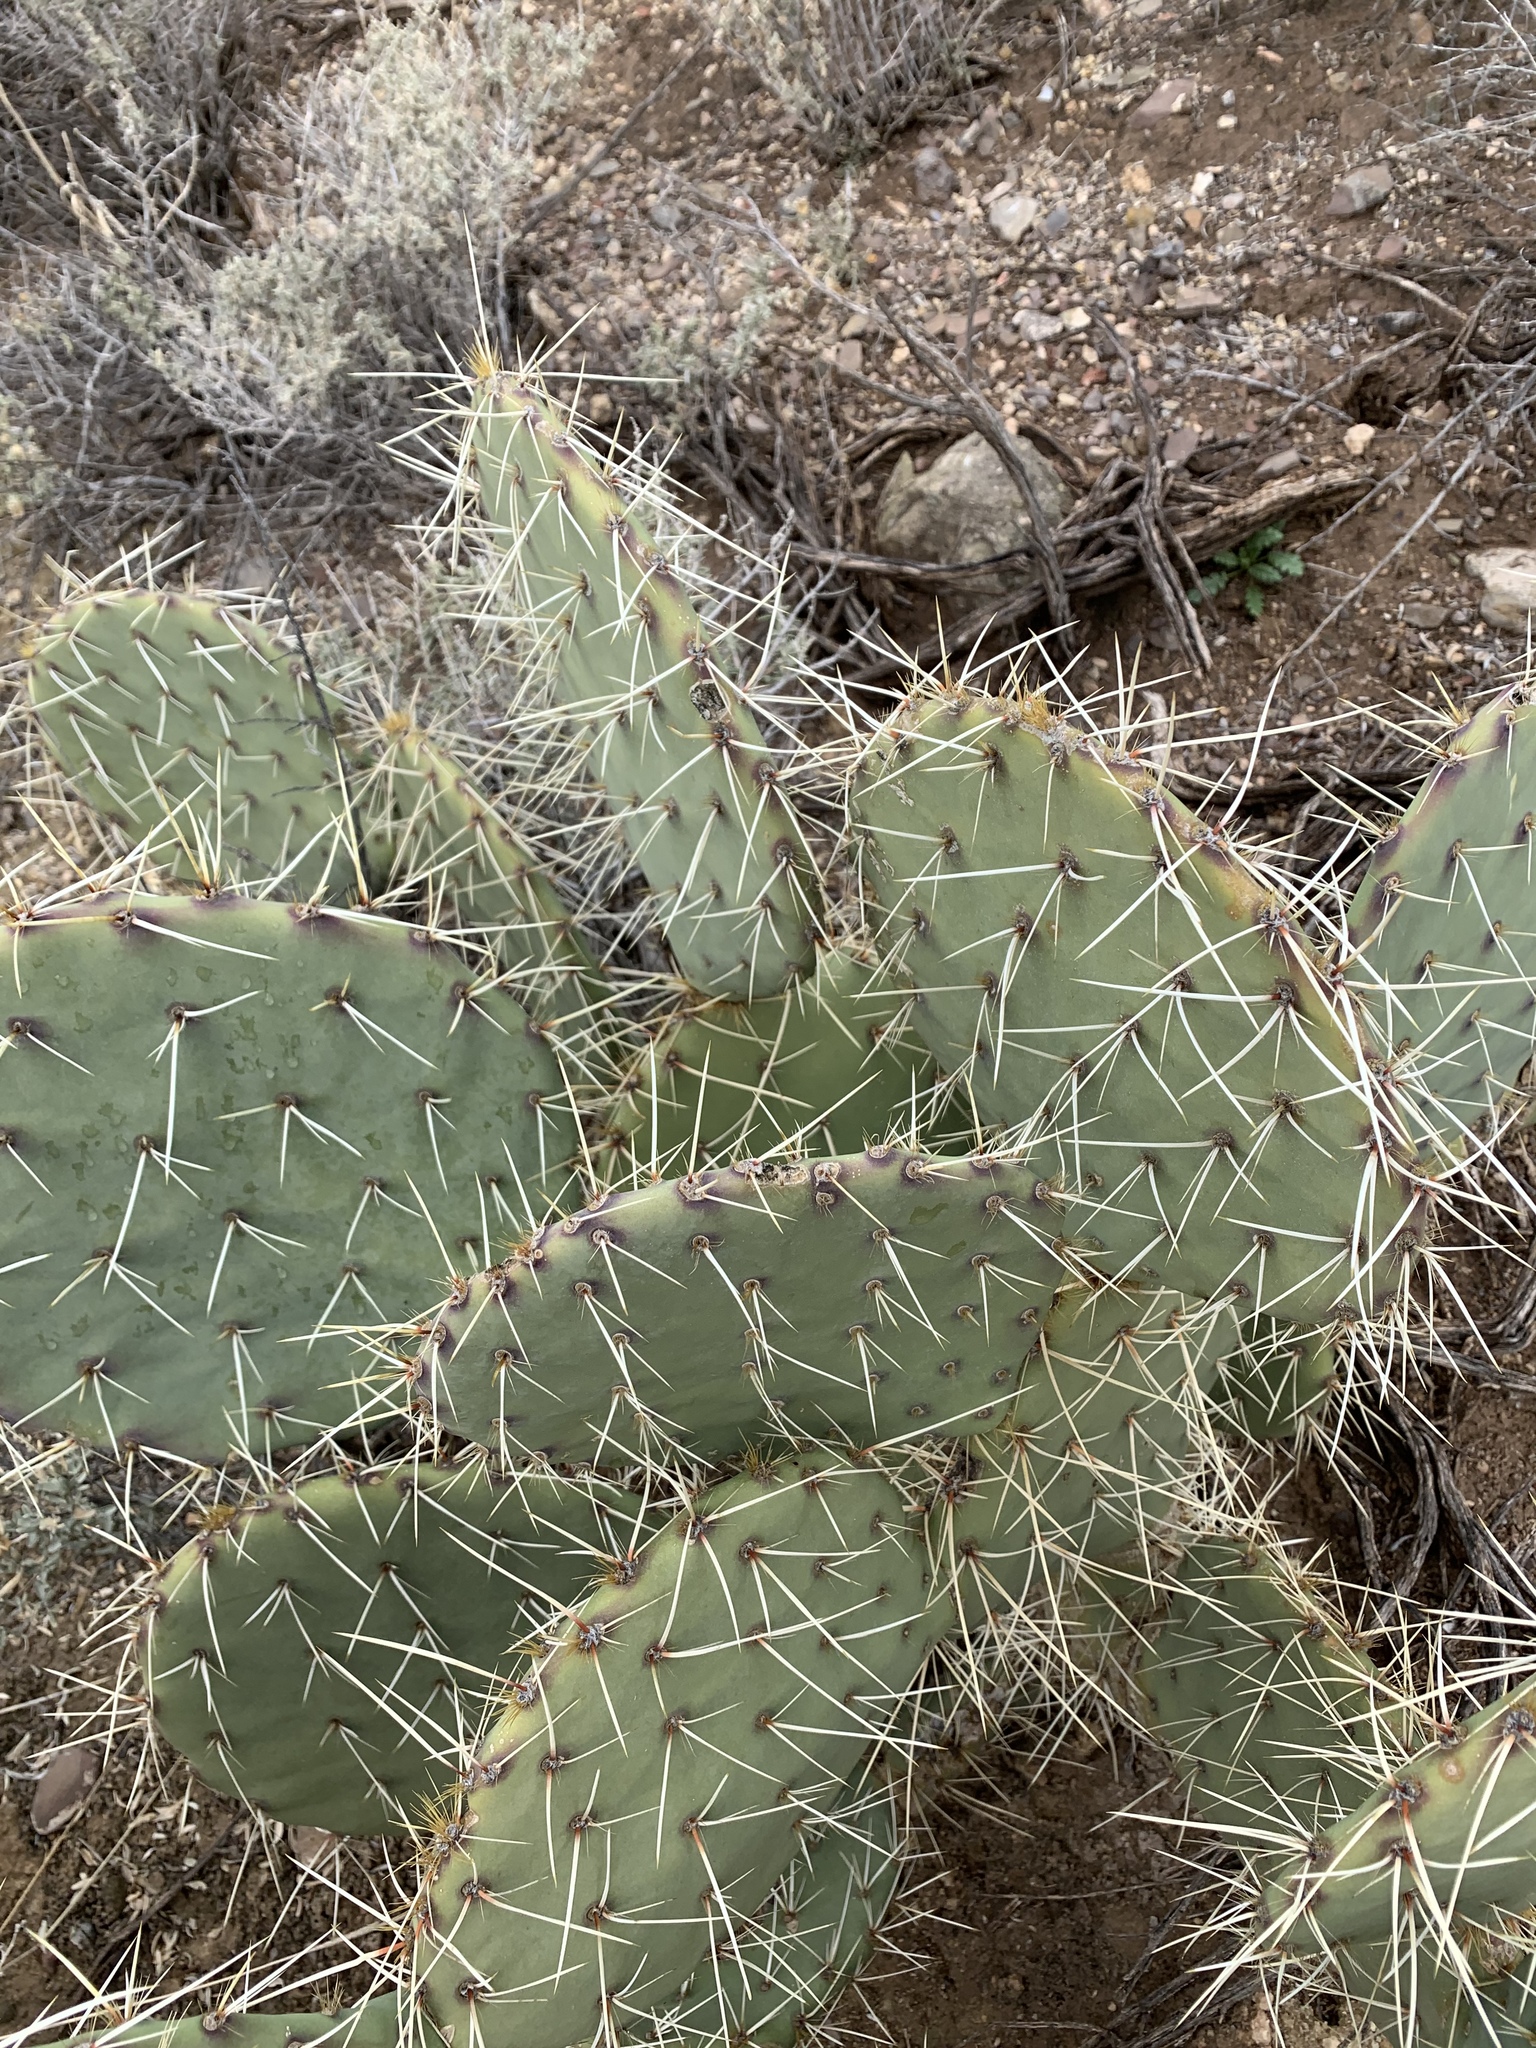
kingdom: Plantae
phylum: Tracheophyta
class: Magnoliopsida
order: Caryophyllales
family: Cactaceae
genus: Opuntia
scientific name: Opuntia phaeacantha
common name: New mexico prickly-pear
